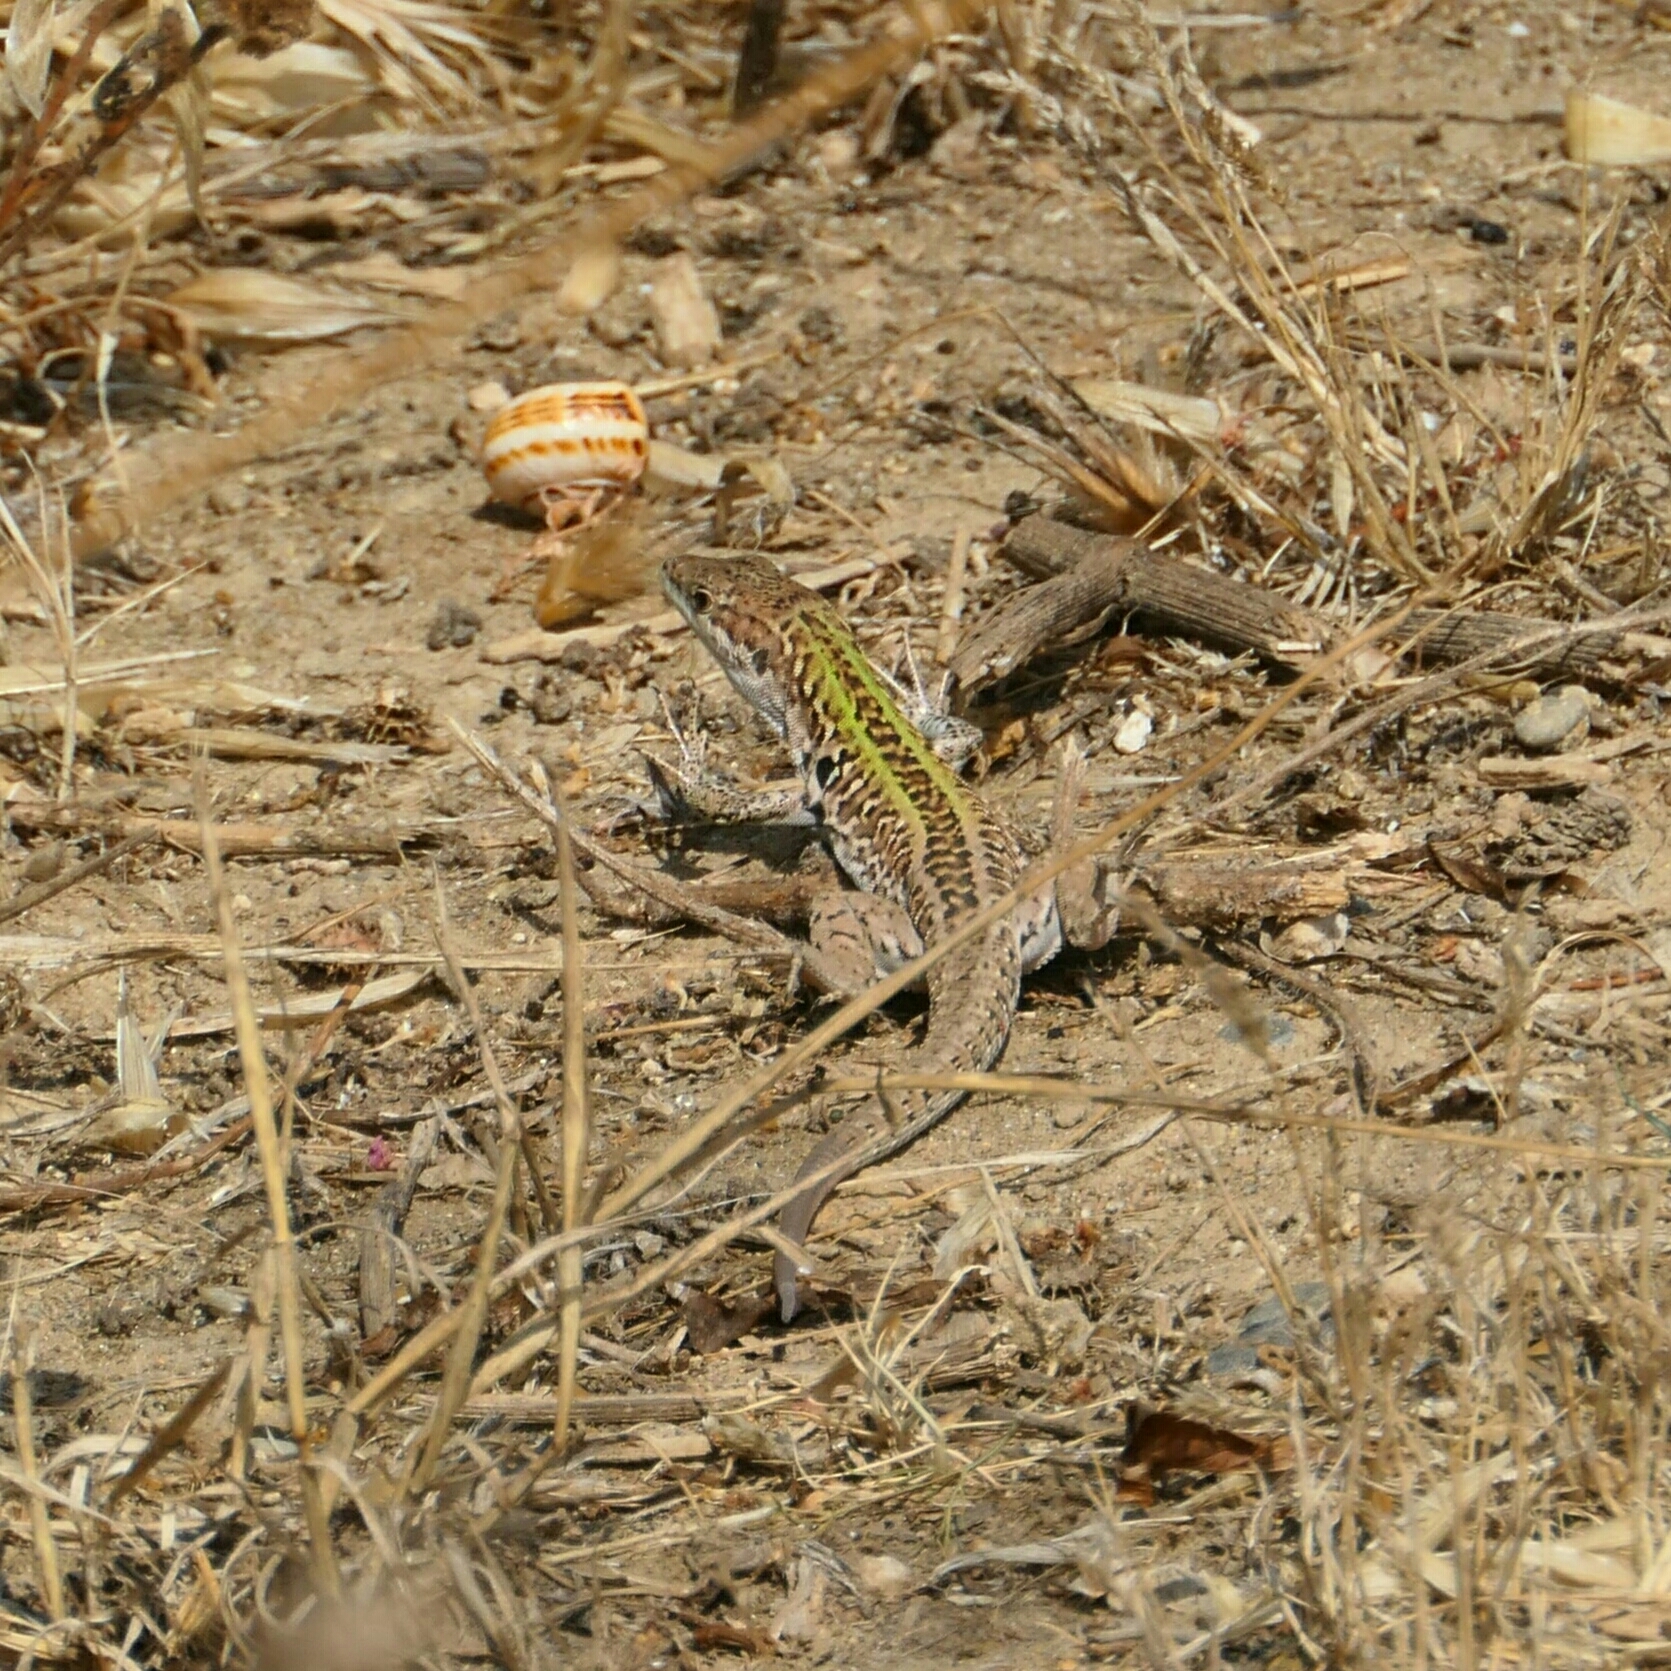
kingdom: Animalia
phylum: Chordata
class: Squamata
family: Lacertidae
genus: Podarcis
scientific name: Podarcis siculus
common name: Italian wall lizard
